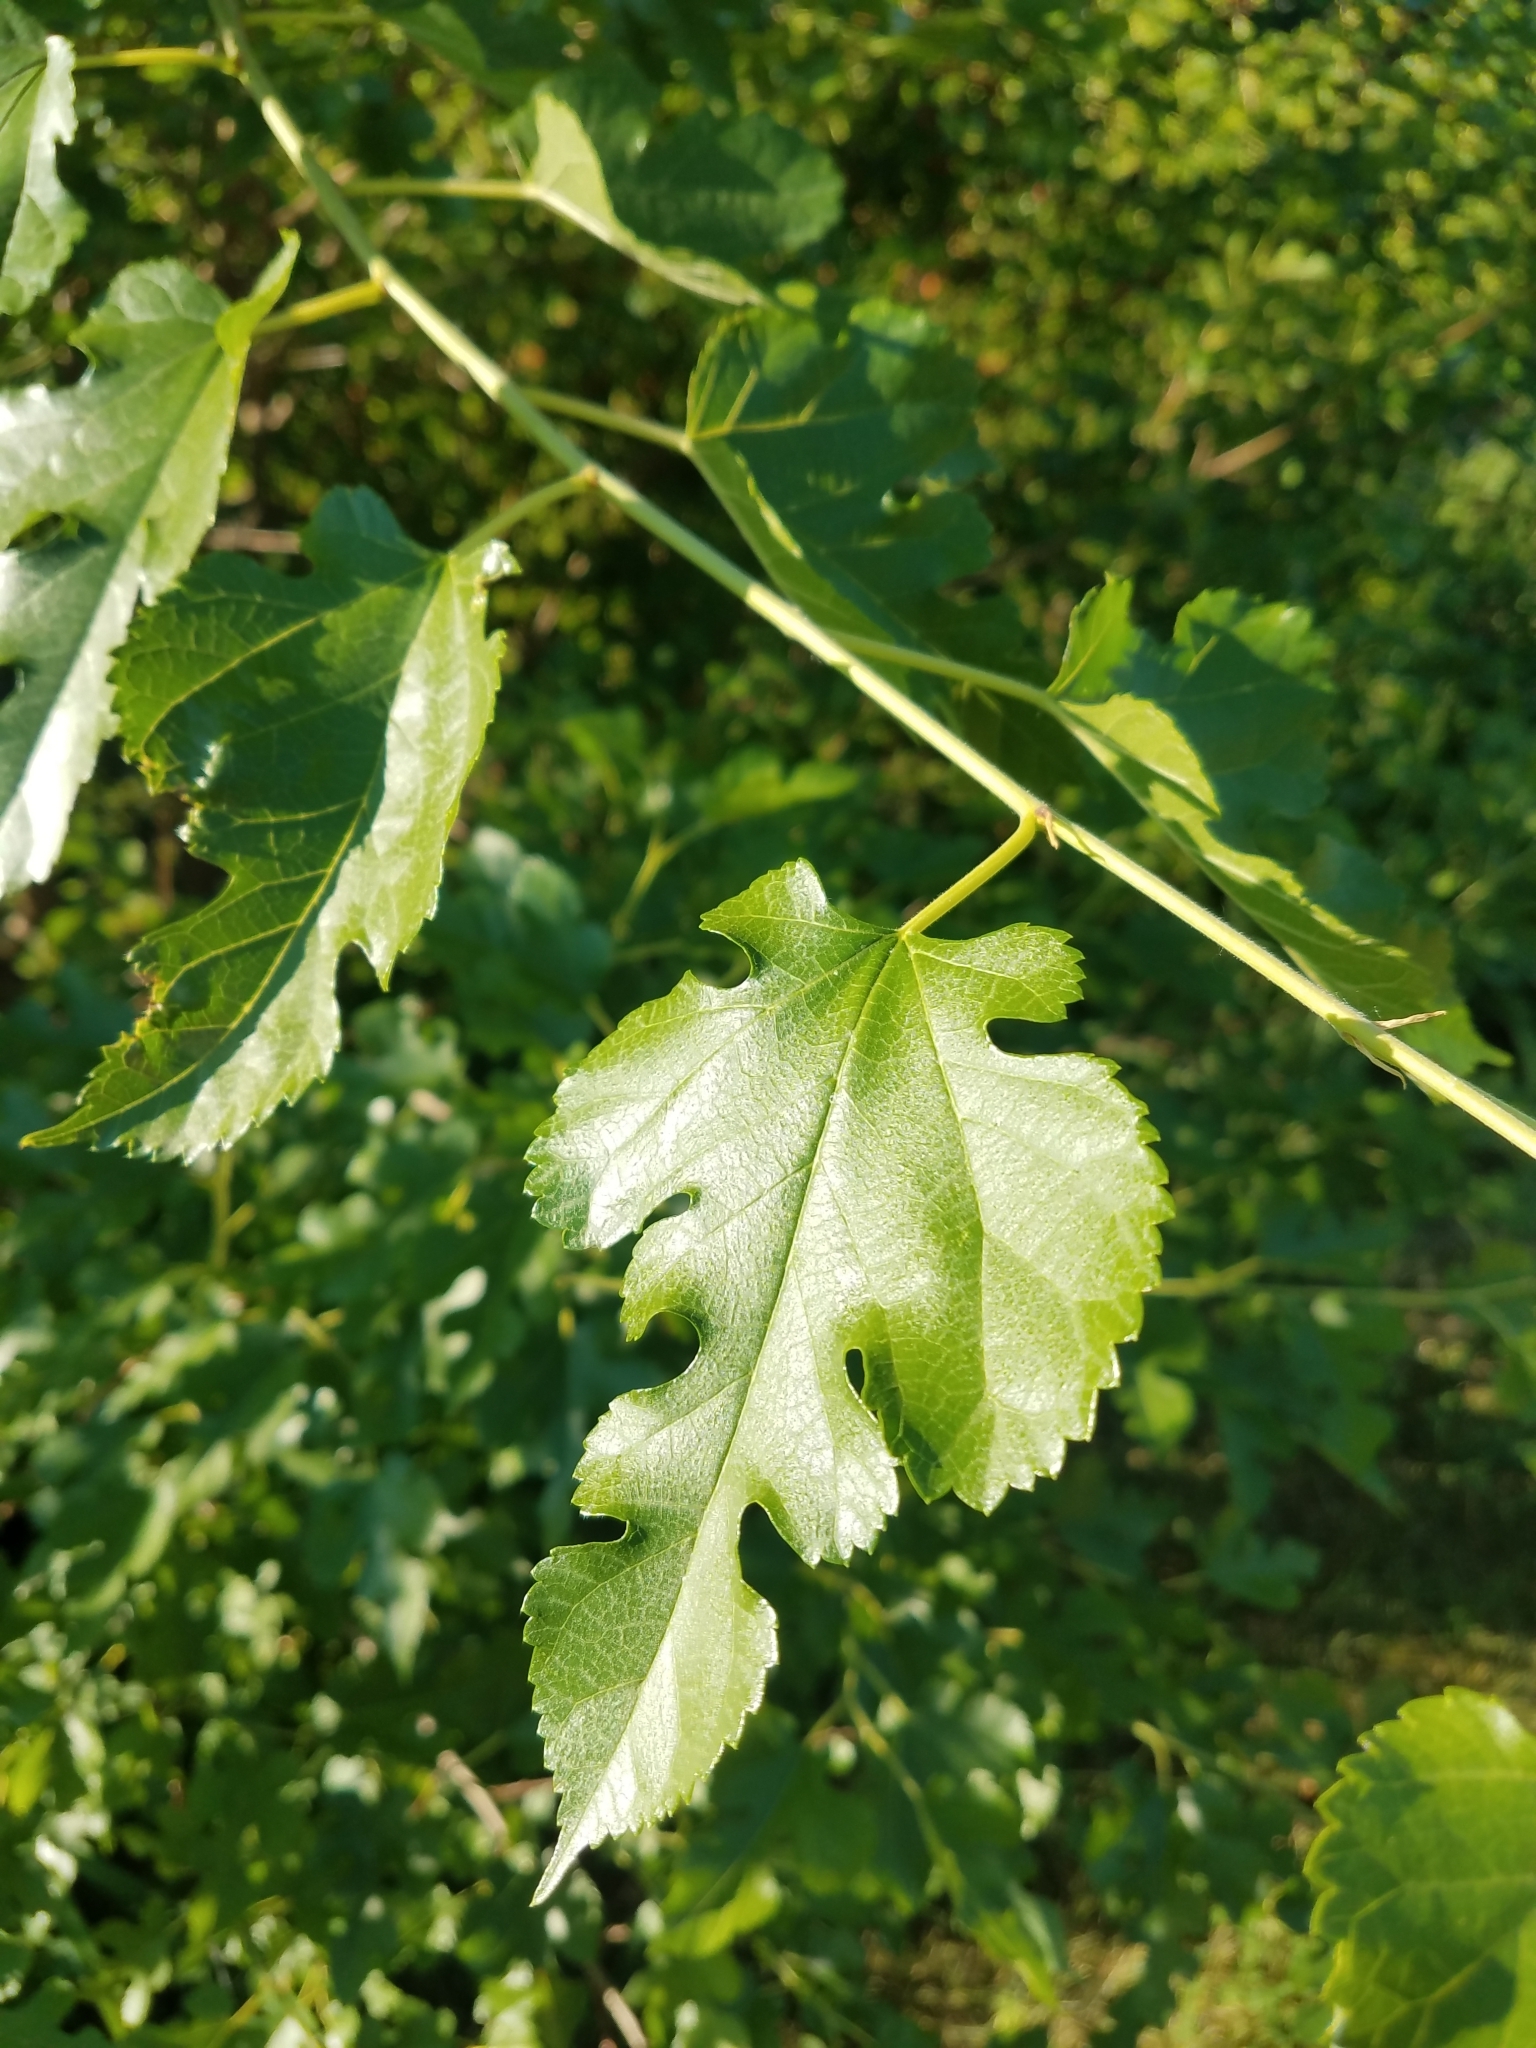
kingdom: Plantae
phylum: Tracheophyta
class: Magnoliopsida
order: Rosales
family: Moraceae
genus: Morus
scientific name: Morus alba
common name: White mulberry
